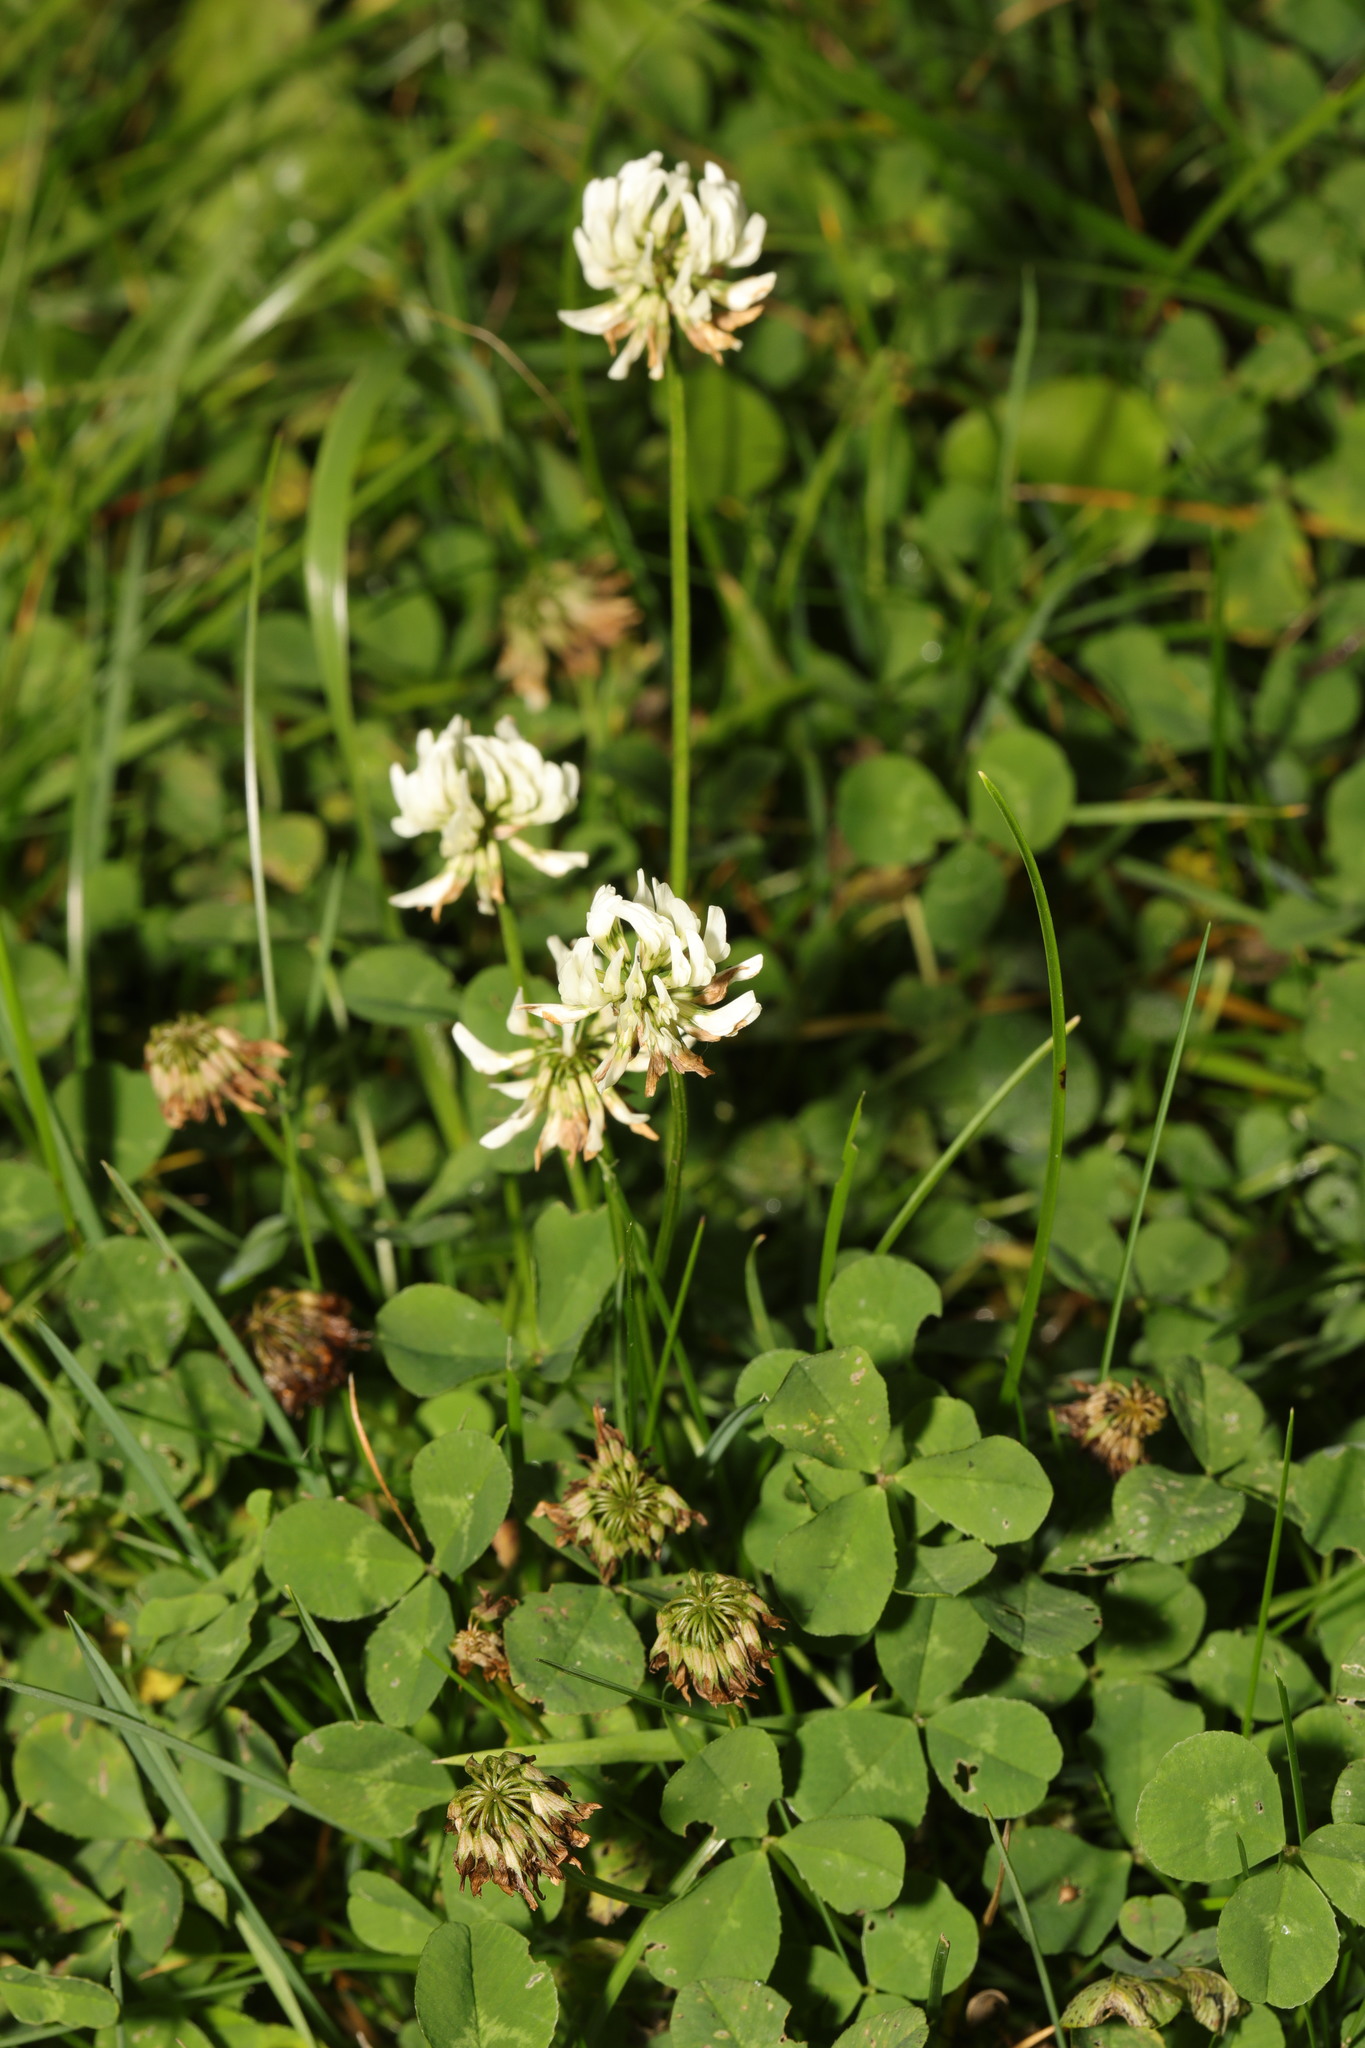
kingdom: Plantae
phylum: Tracheophyta
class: Magnoliopsida
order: Fabales
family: Fabaceae
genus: Trifolium
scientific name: Trifolium repens
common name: White clover
